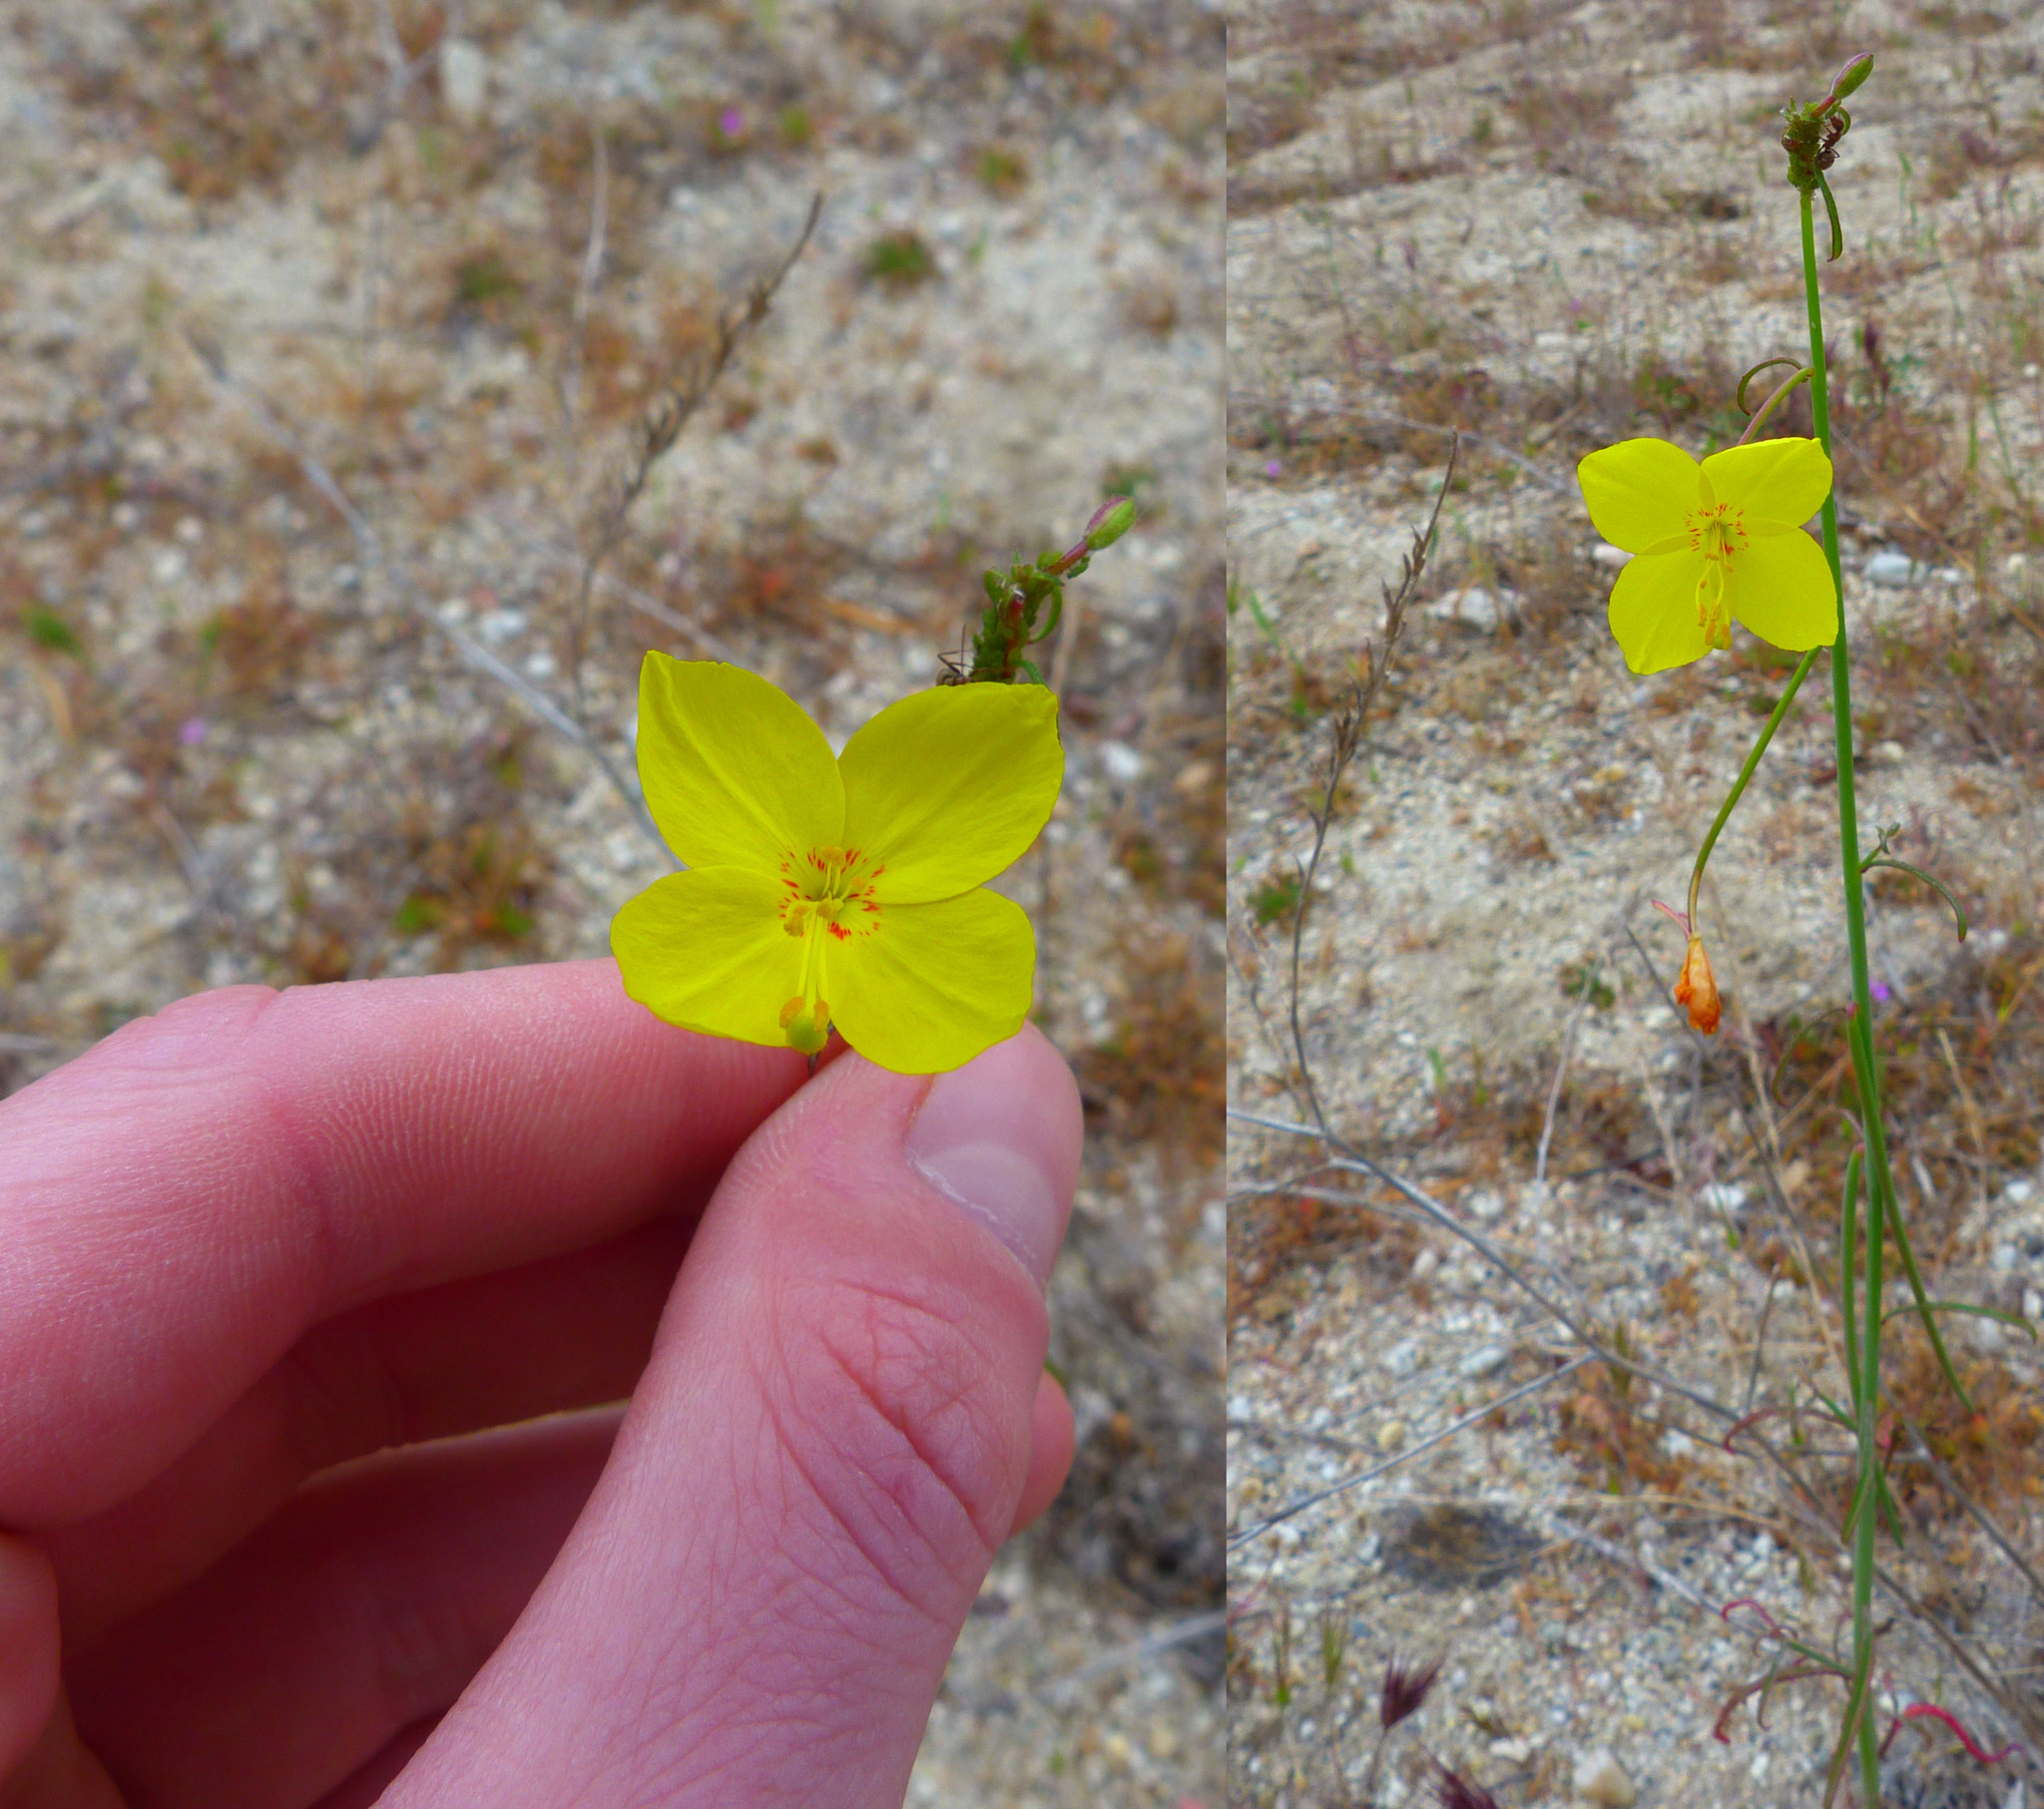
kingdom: Plantae
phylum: Tracheophyta
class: Magnoliopsida
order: Myrtales
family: Onagraceae
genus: Eulobus
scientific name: Eulobus californicus
